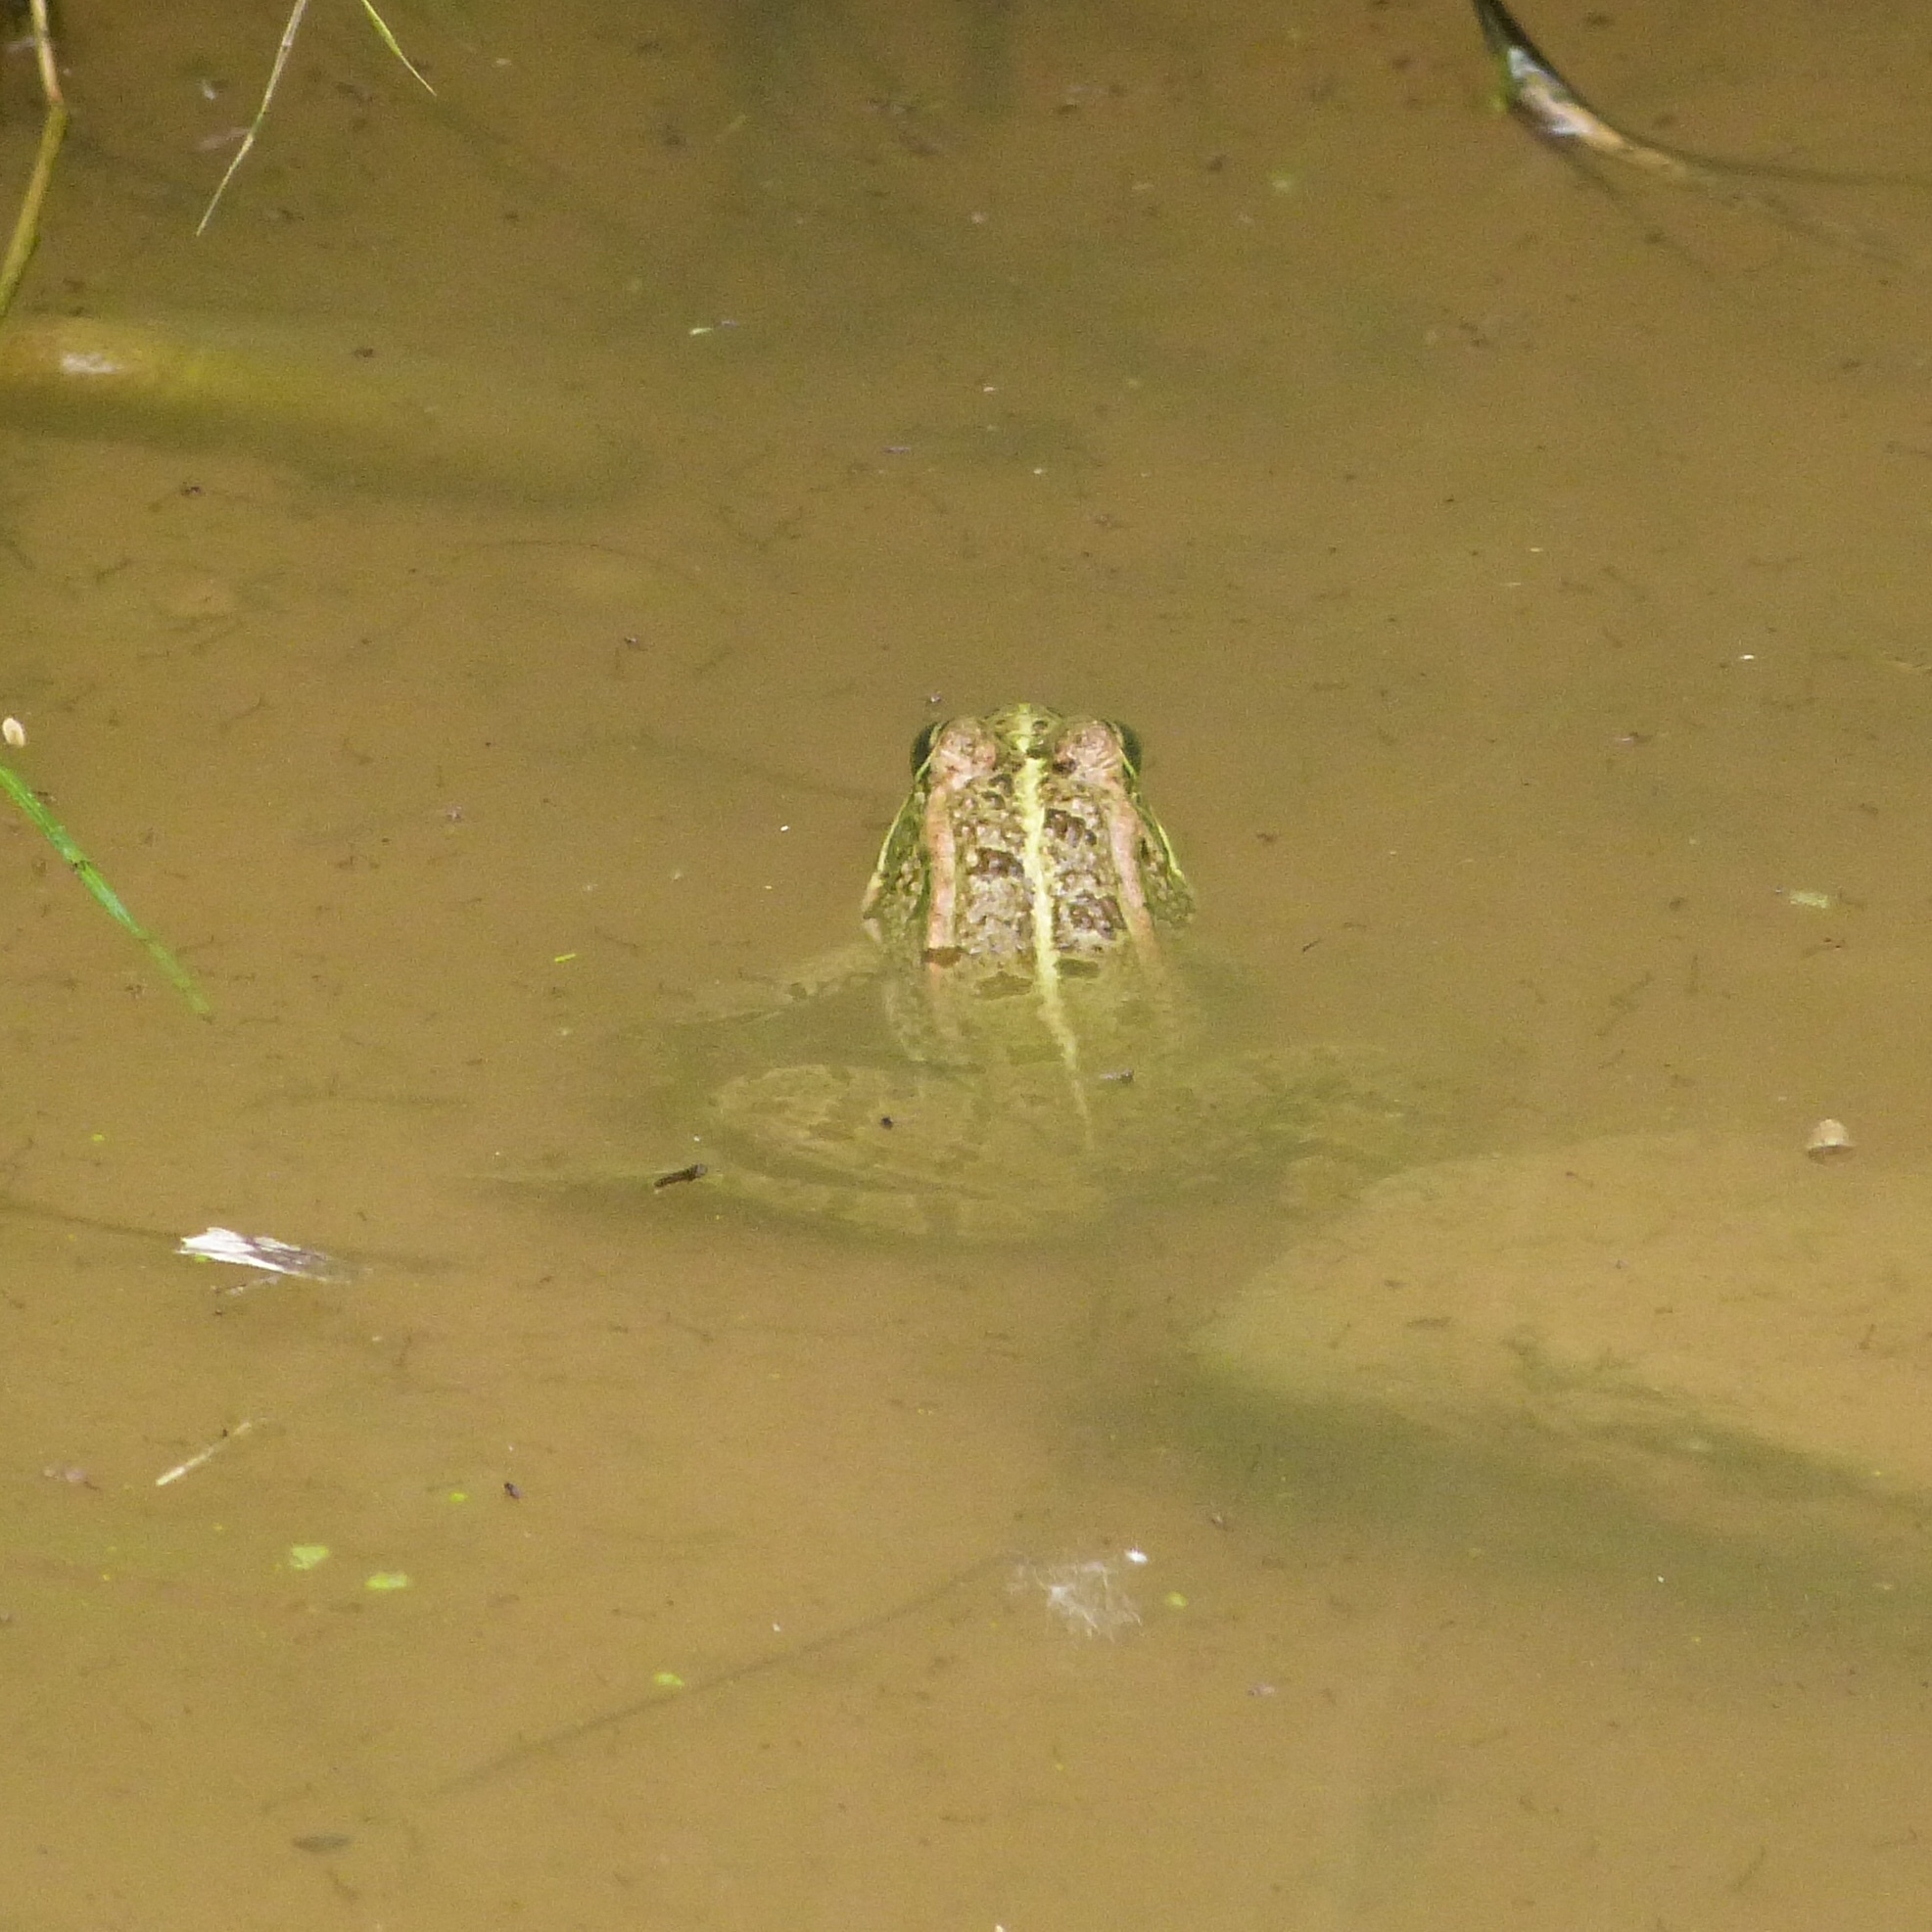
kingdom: Animalia
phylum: Chordata
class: Amphibia
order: Anura
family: Ranidae
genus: Pelophylax
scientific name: Pelophylax perezi
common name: Perez's frog
